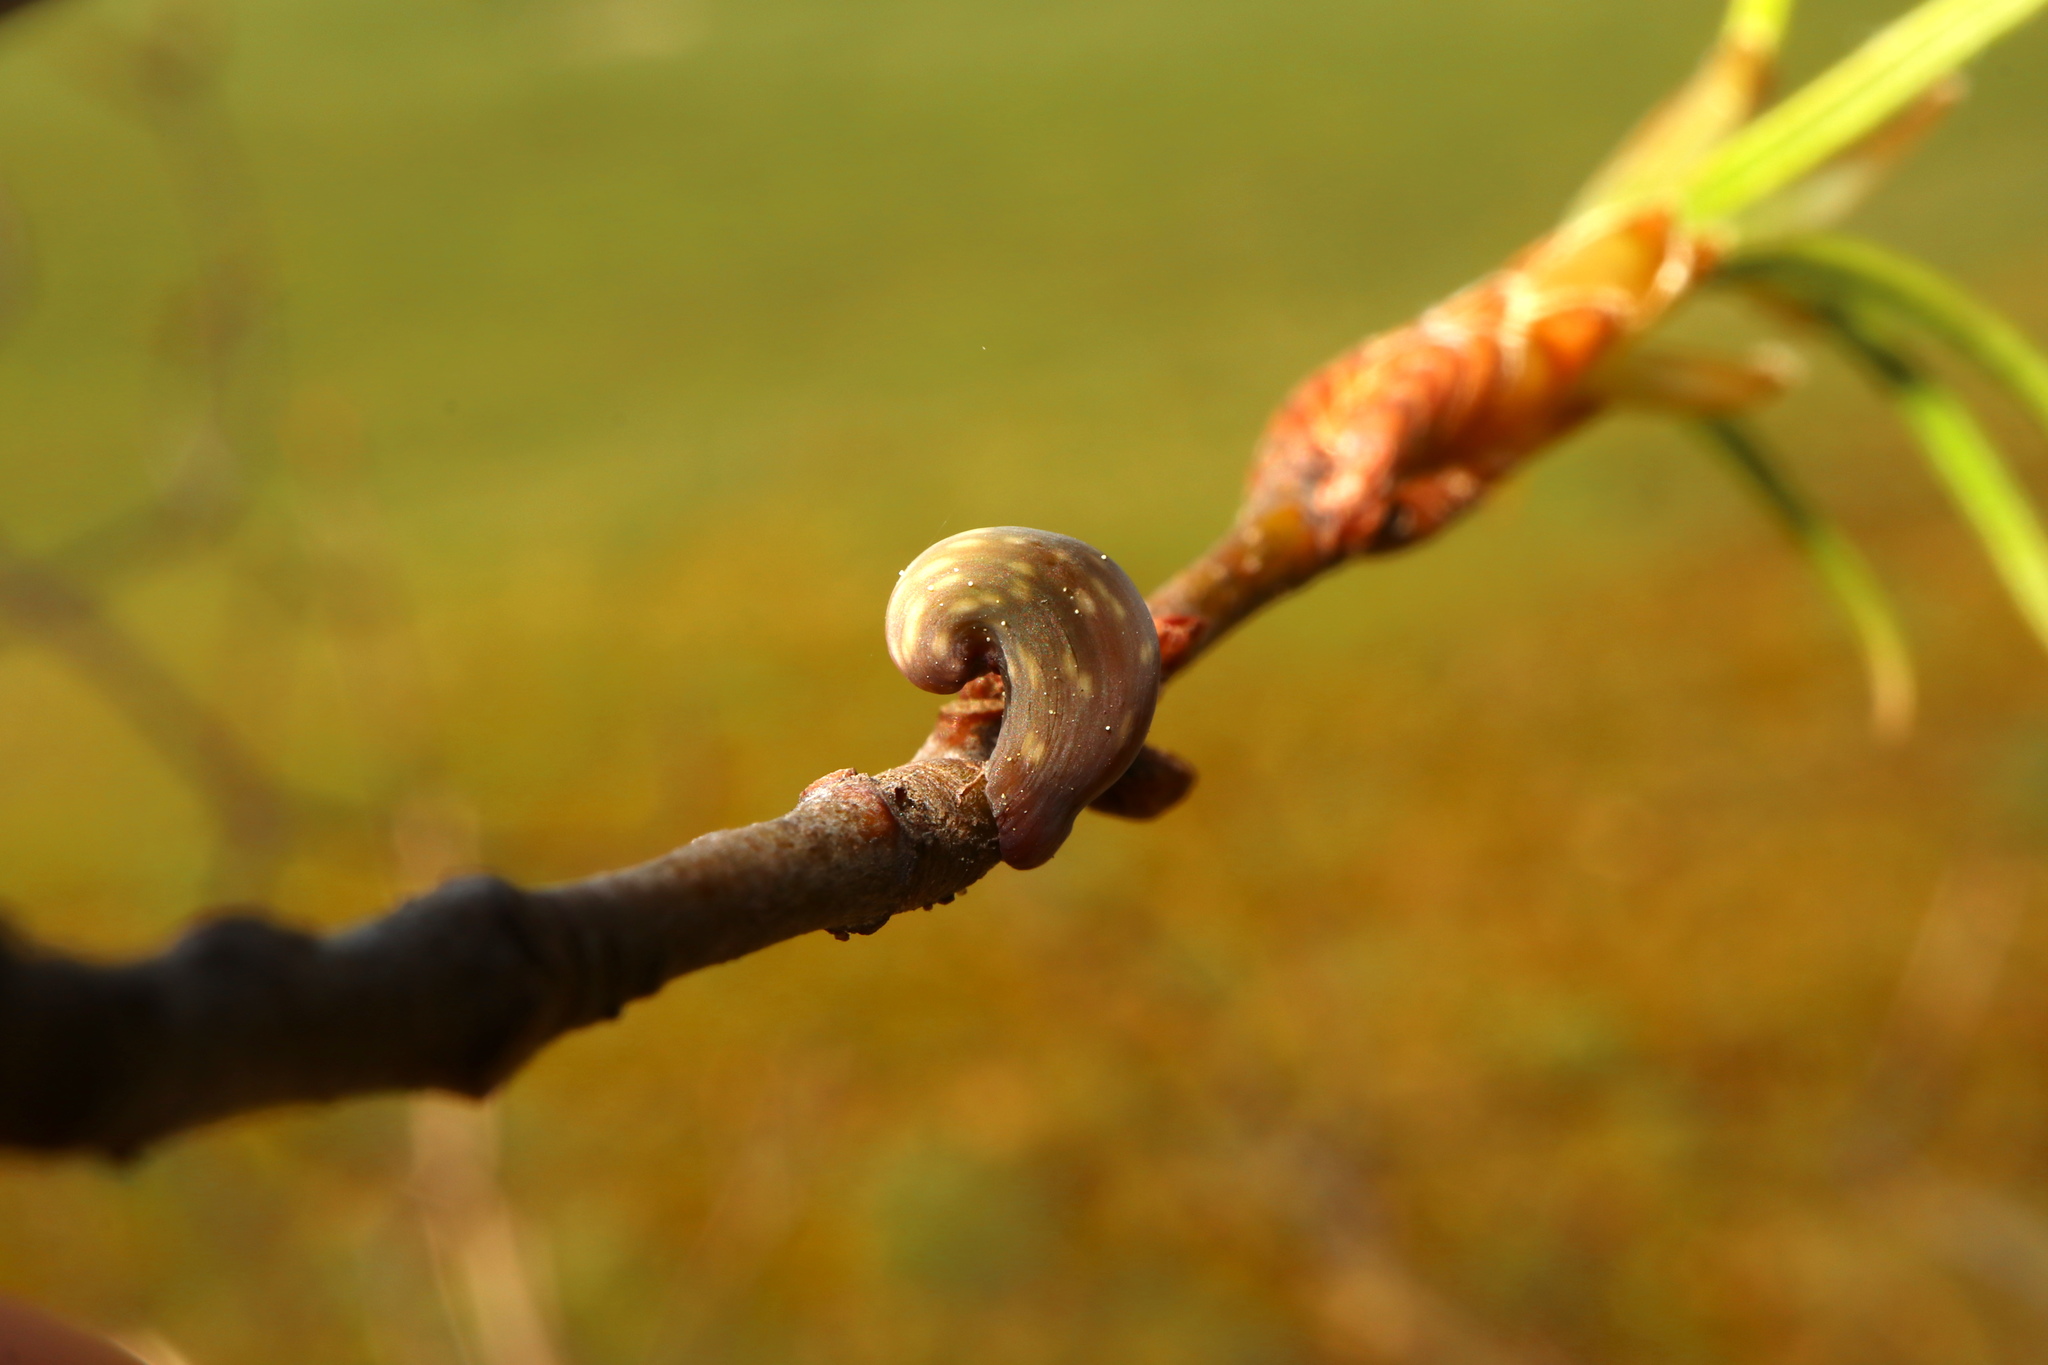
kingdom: Animalia
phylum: Arthropoda
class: Insecta
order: Hymenoptera
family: Cynipidae
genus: Amphibolips
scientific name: Amphibolips
